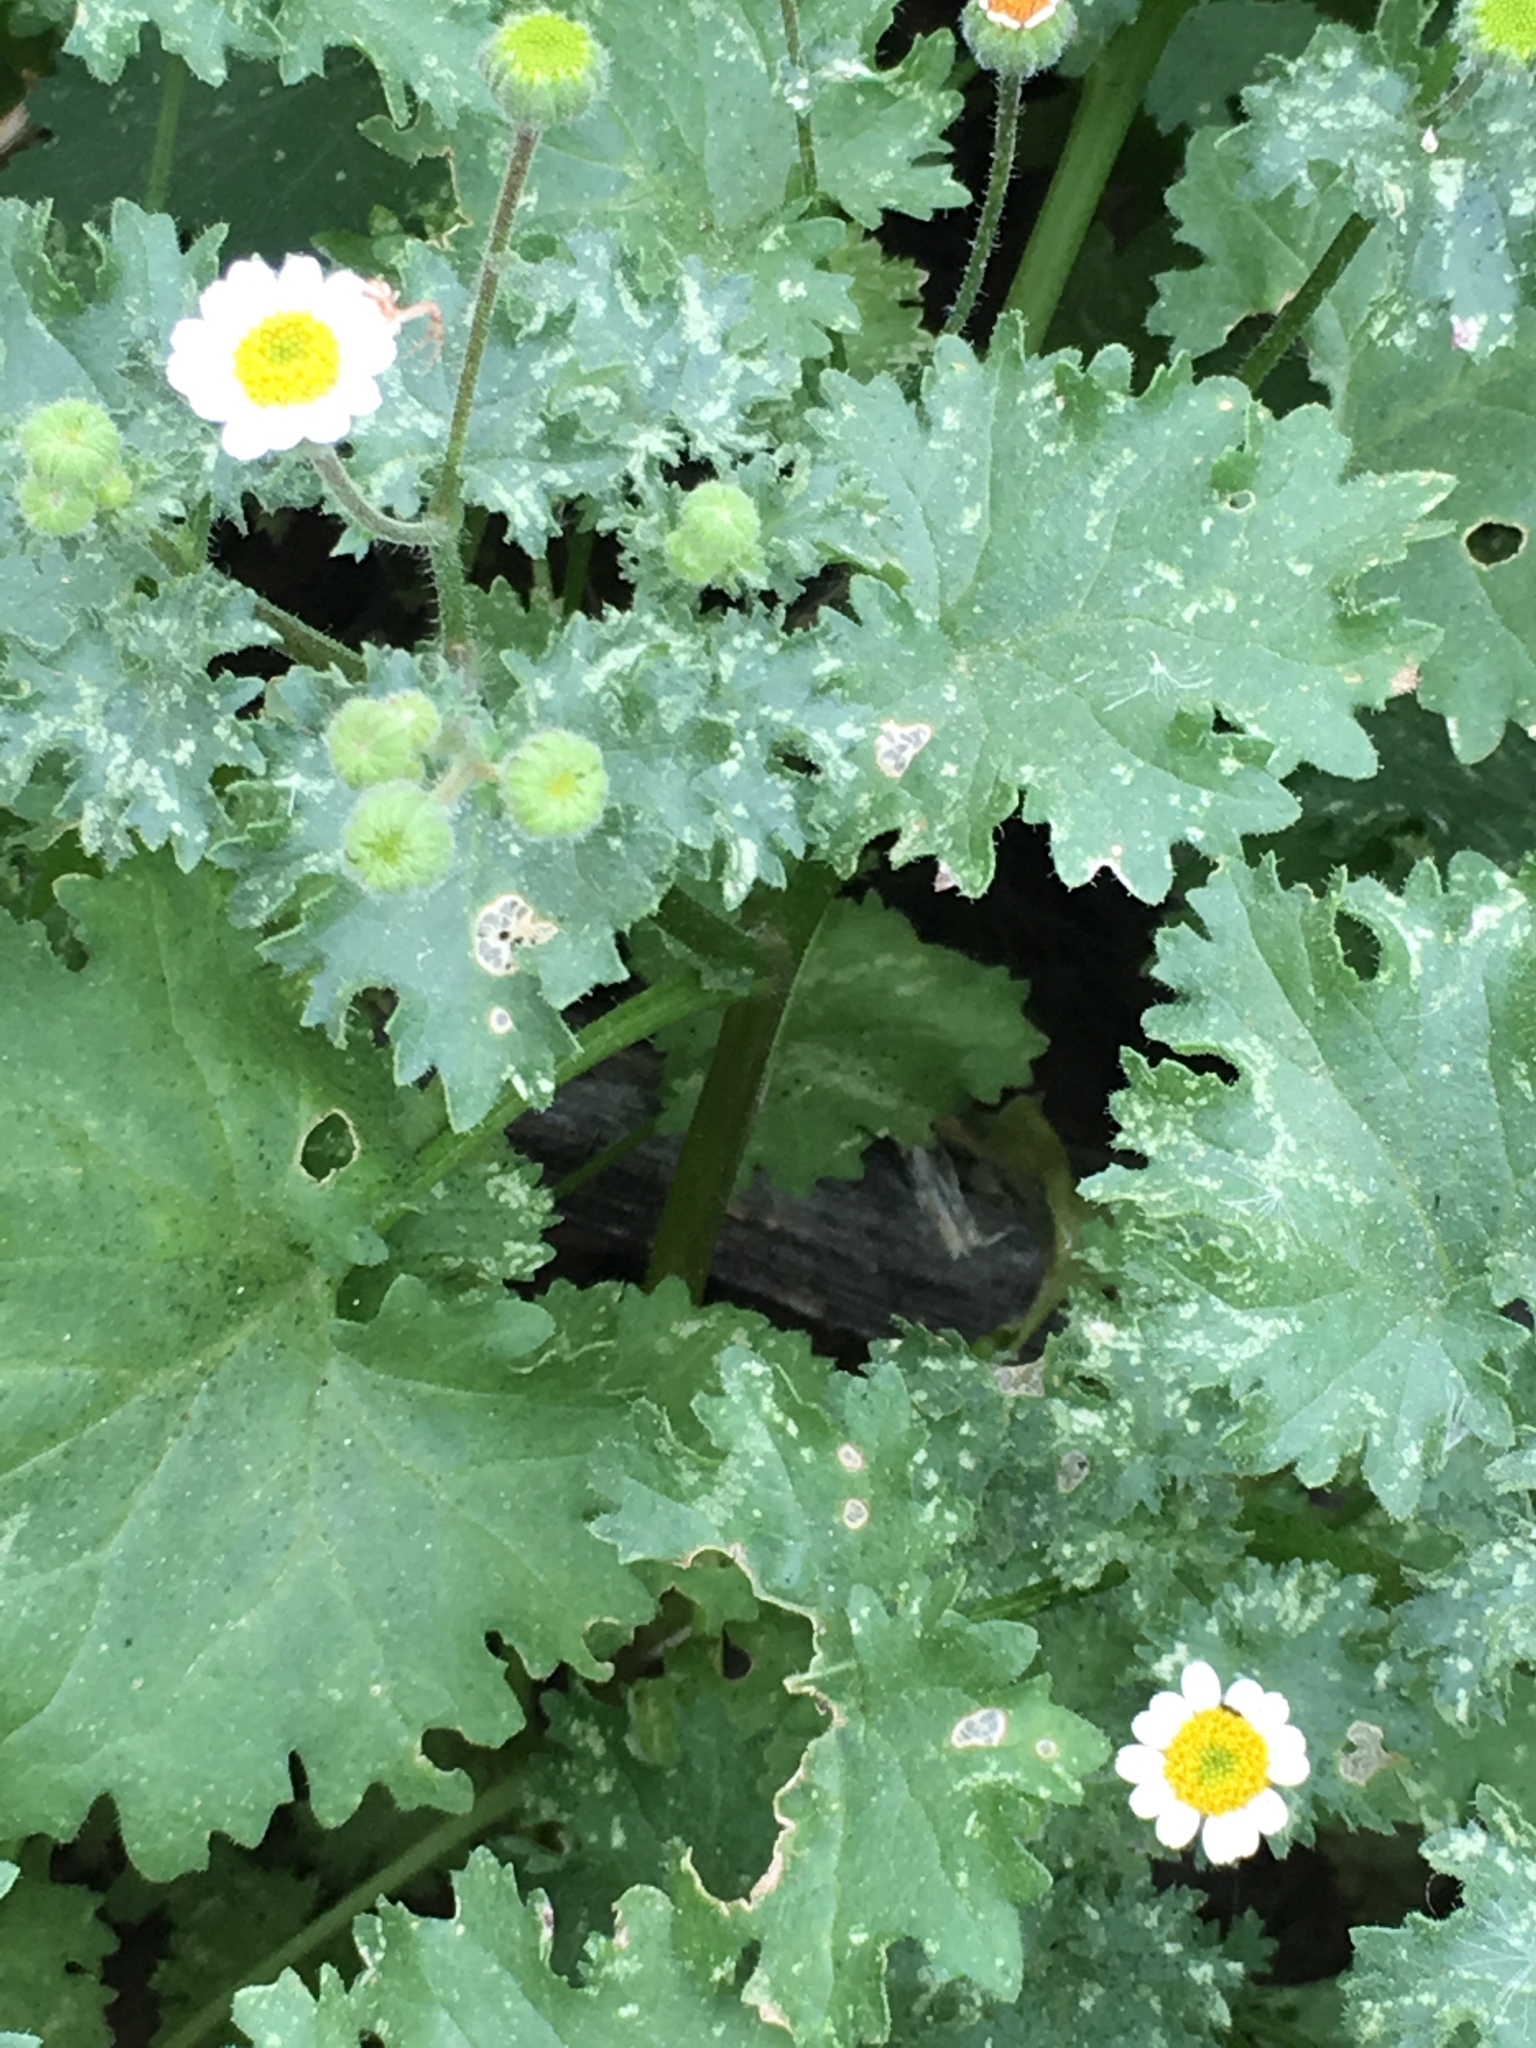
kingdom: Plantae
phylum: Tracheophyta
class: Magnoliopsida
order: Asterales
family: Asteraceae
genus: Laphamia
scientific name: Laphamia emoryi
